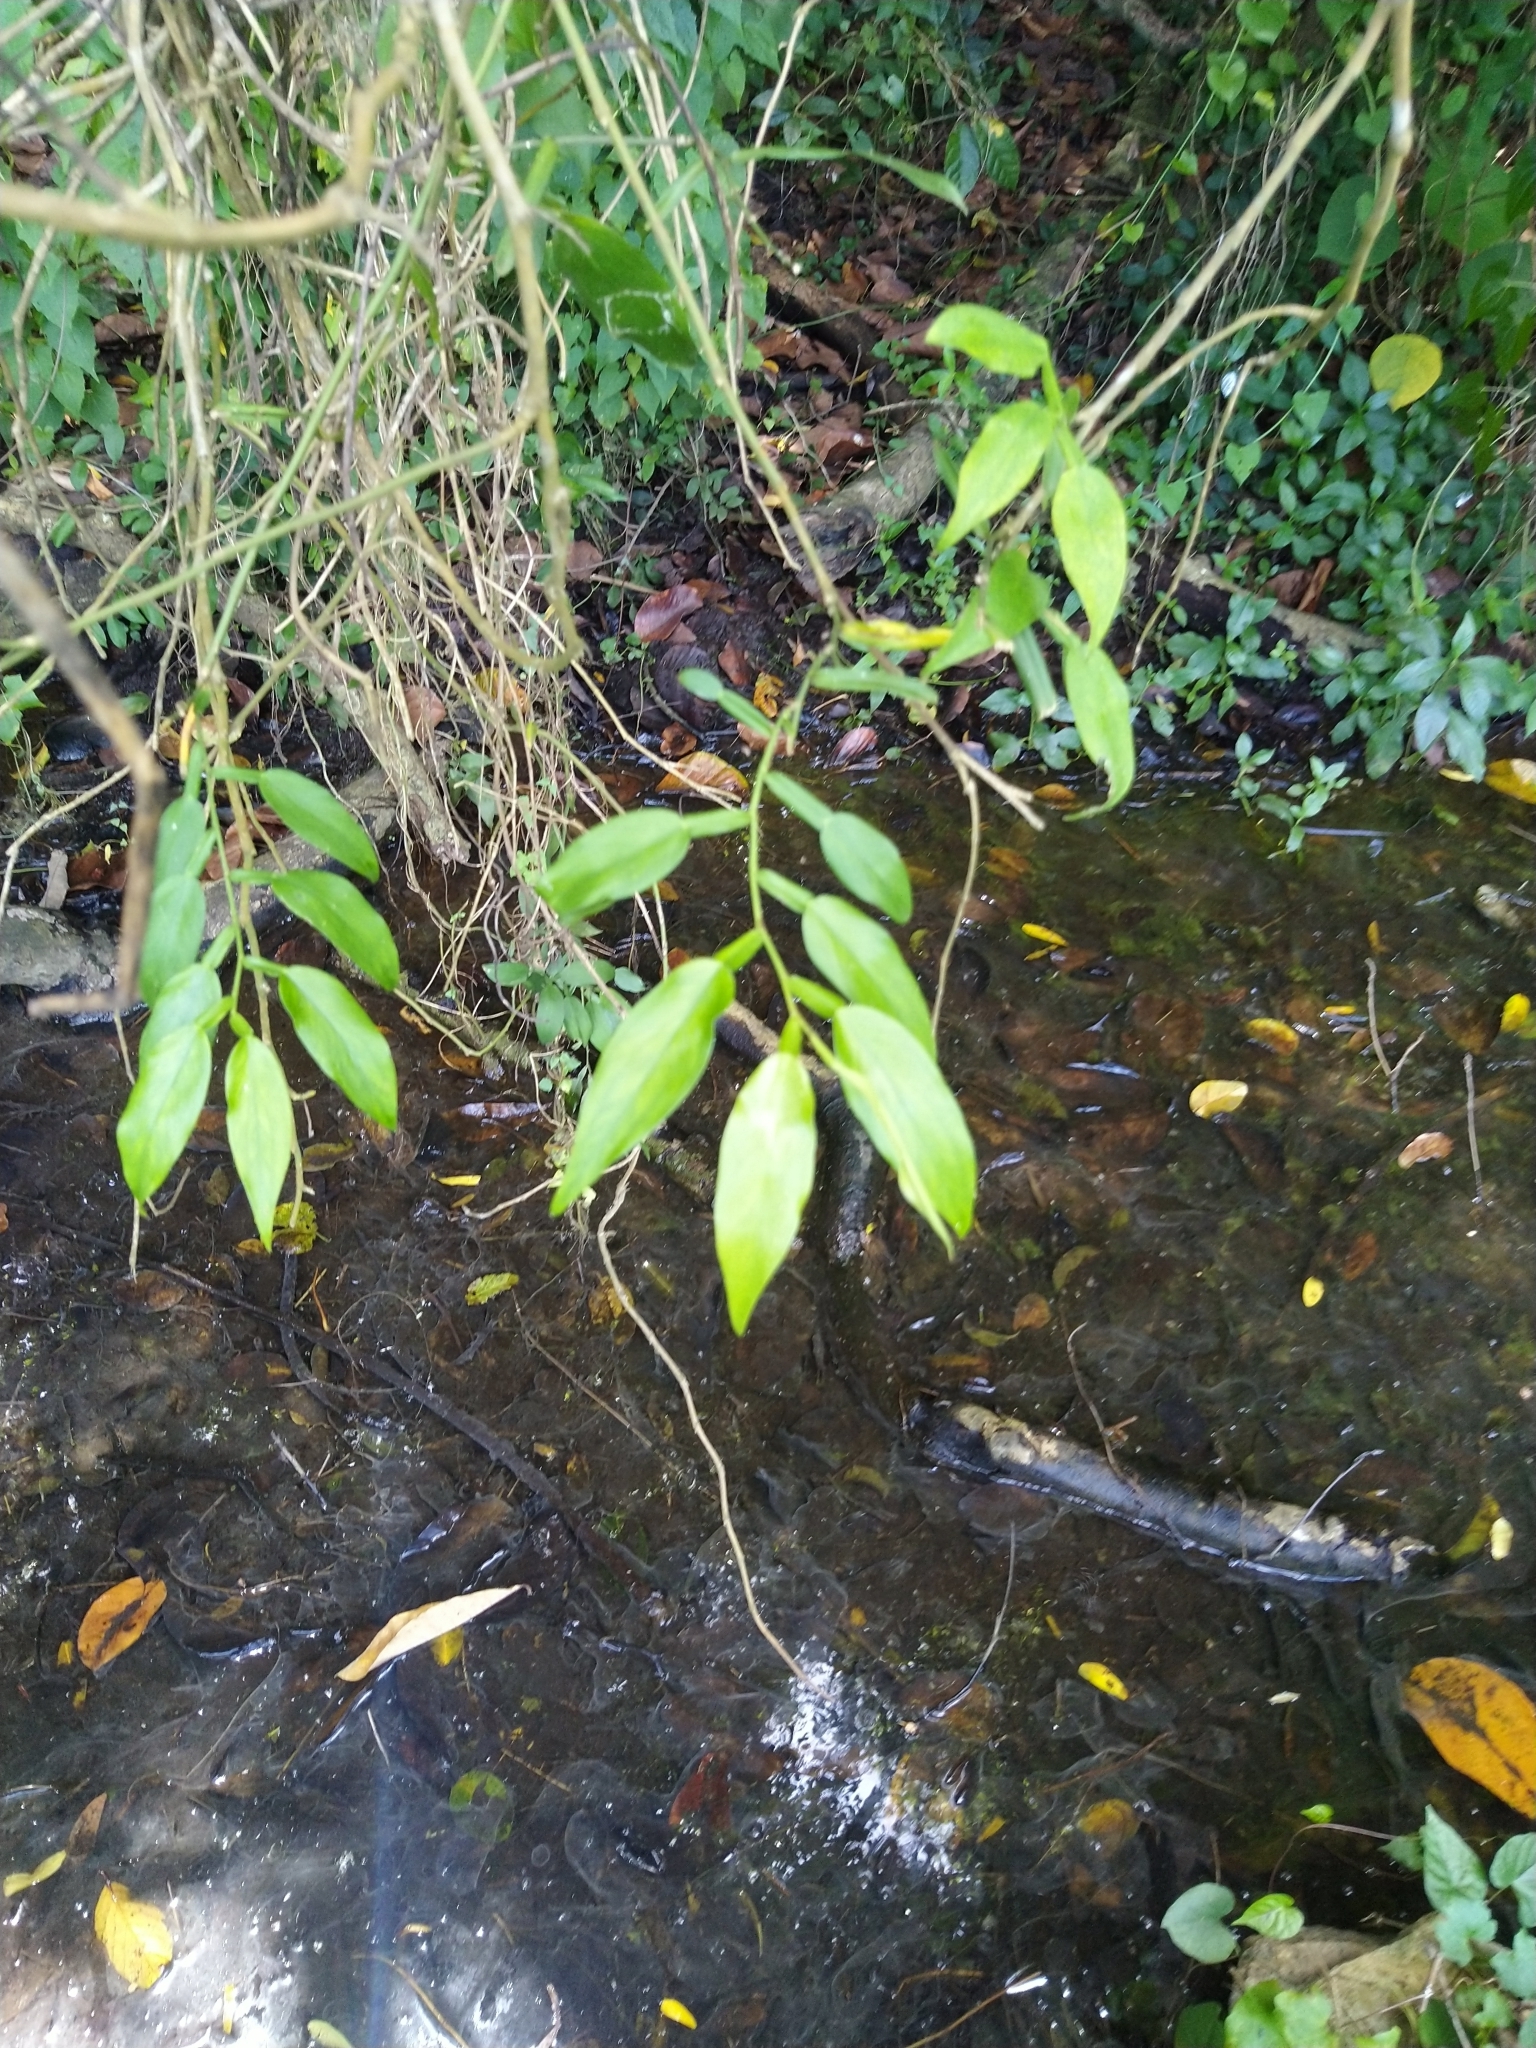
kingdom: Plantae
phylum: Tracheophyta
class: Liliopsida
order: Alismatales
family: Araceae
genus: Pothos
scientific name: Pothos chinensis
